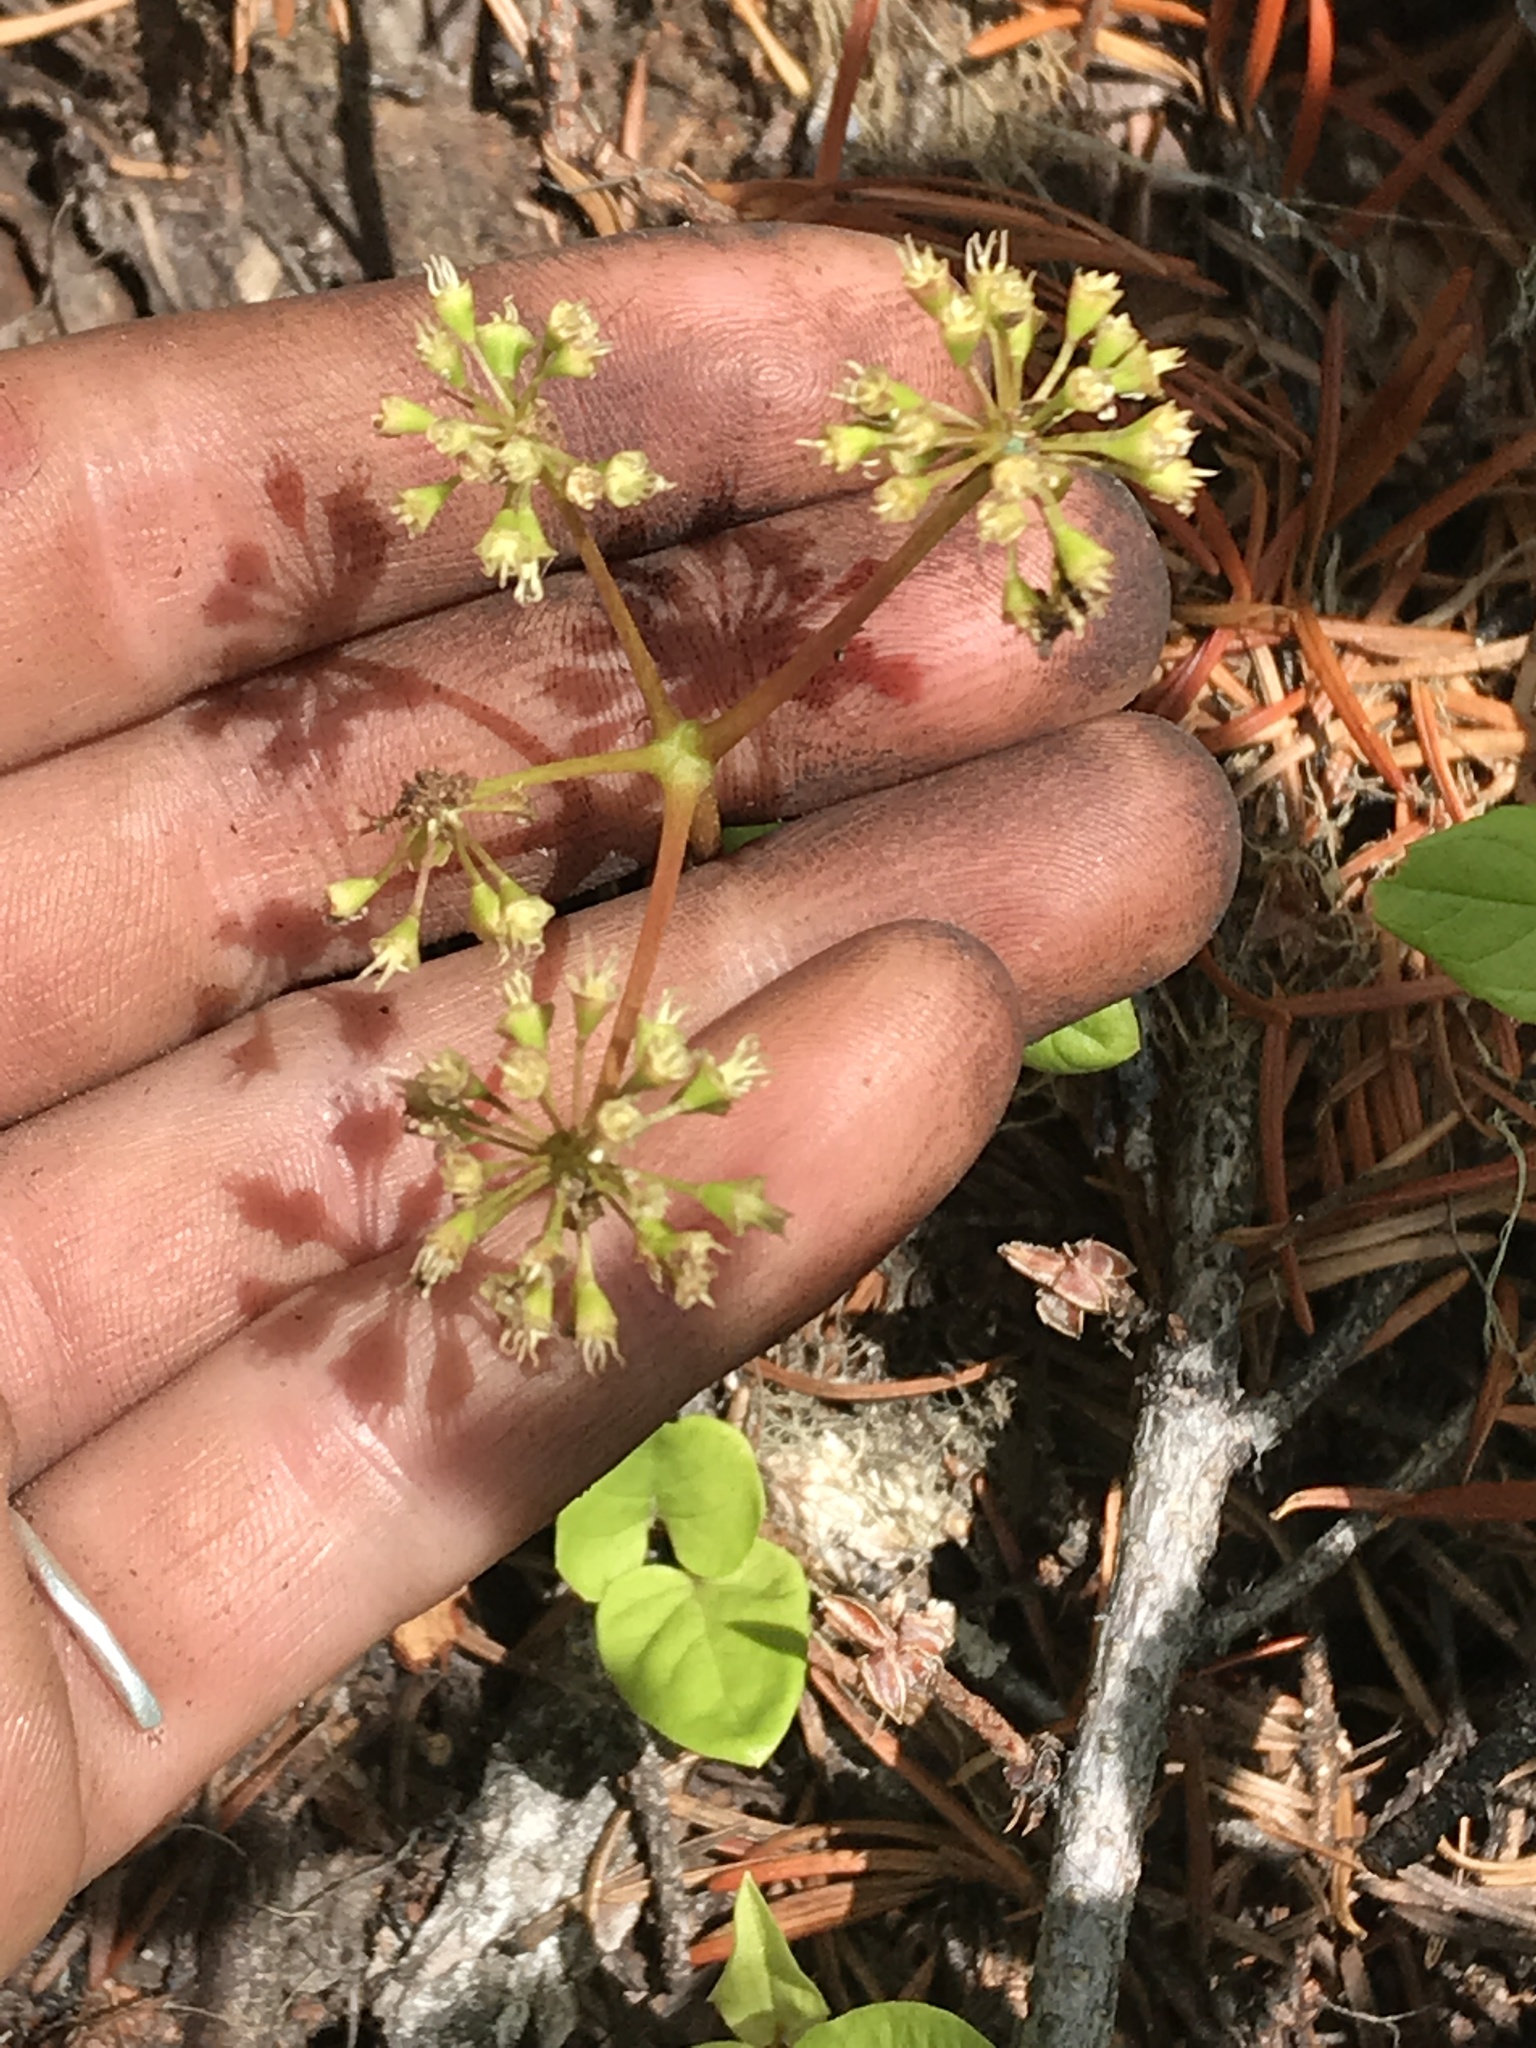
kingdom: Plantae
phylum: Tracheophyta
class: Magnoliopsida
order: Apiales
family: Araliaceae
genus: Aralia
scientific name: Aralia nudicaulis
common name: Wild sarsaparilla
